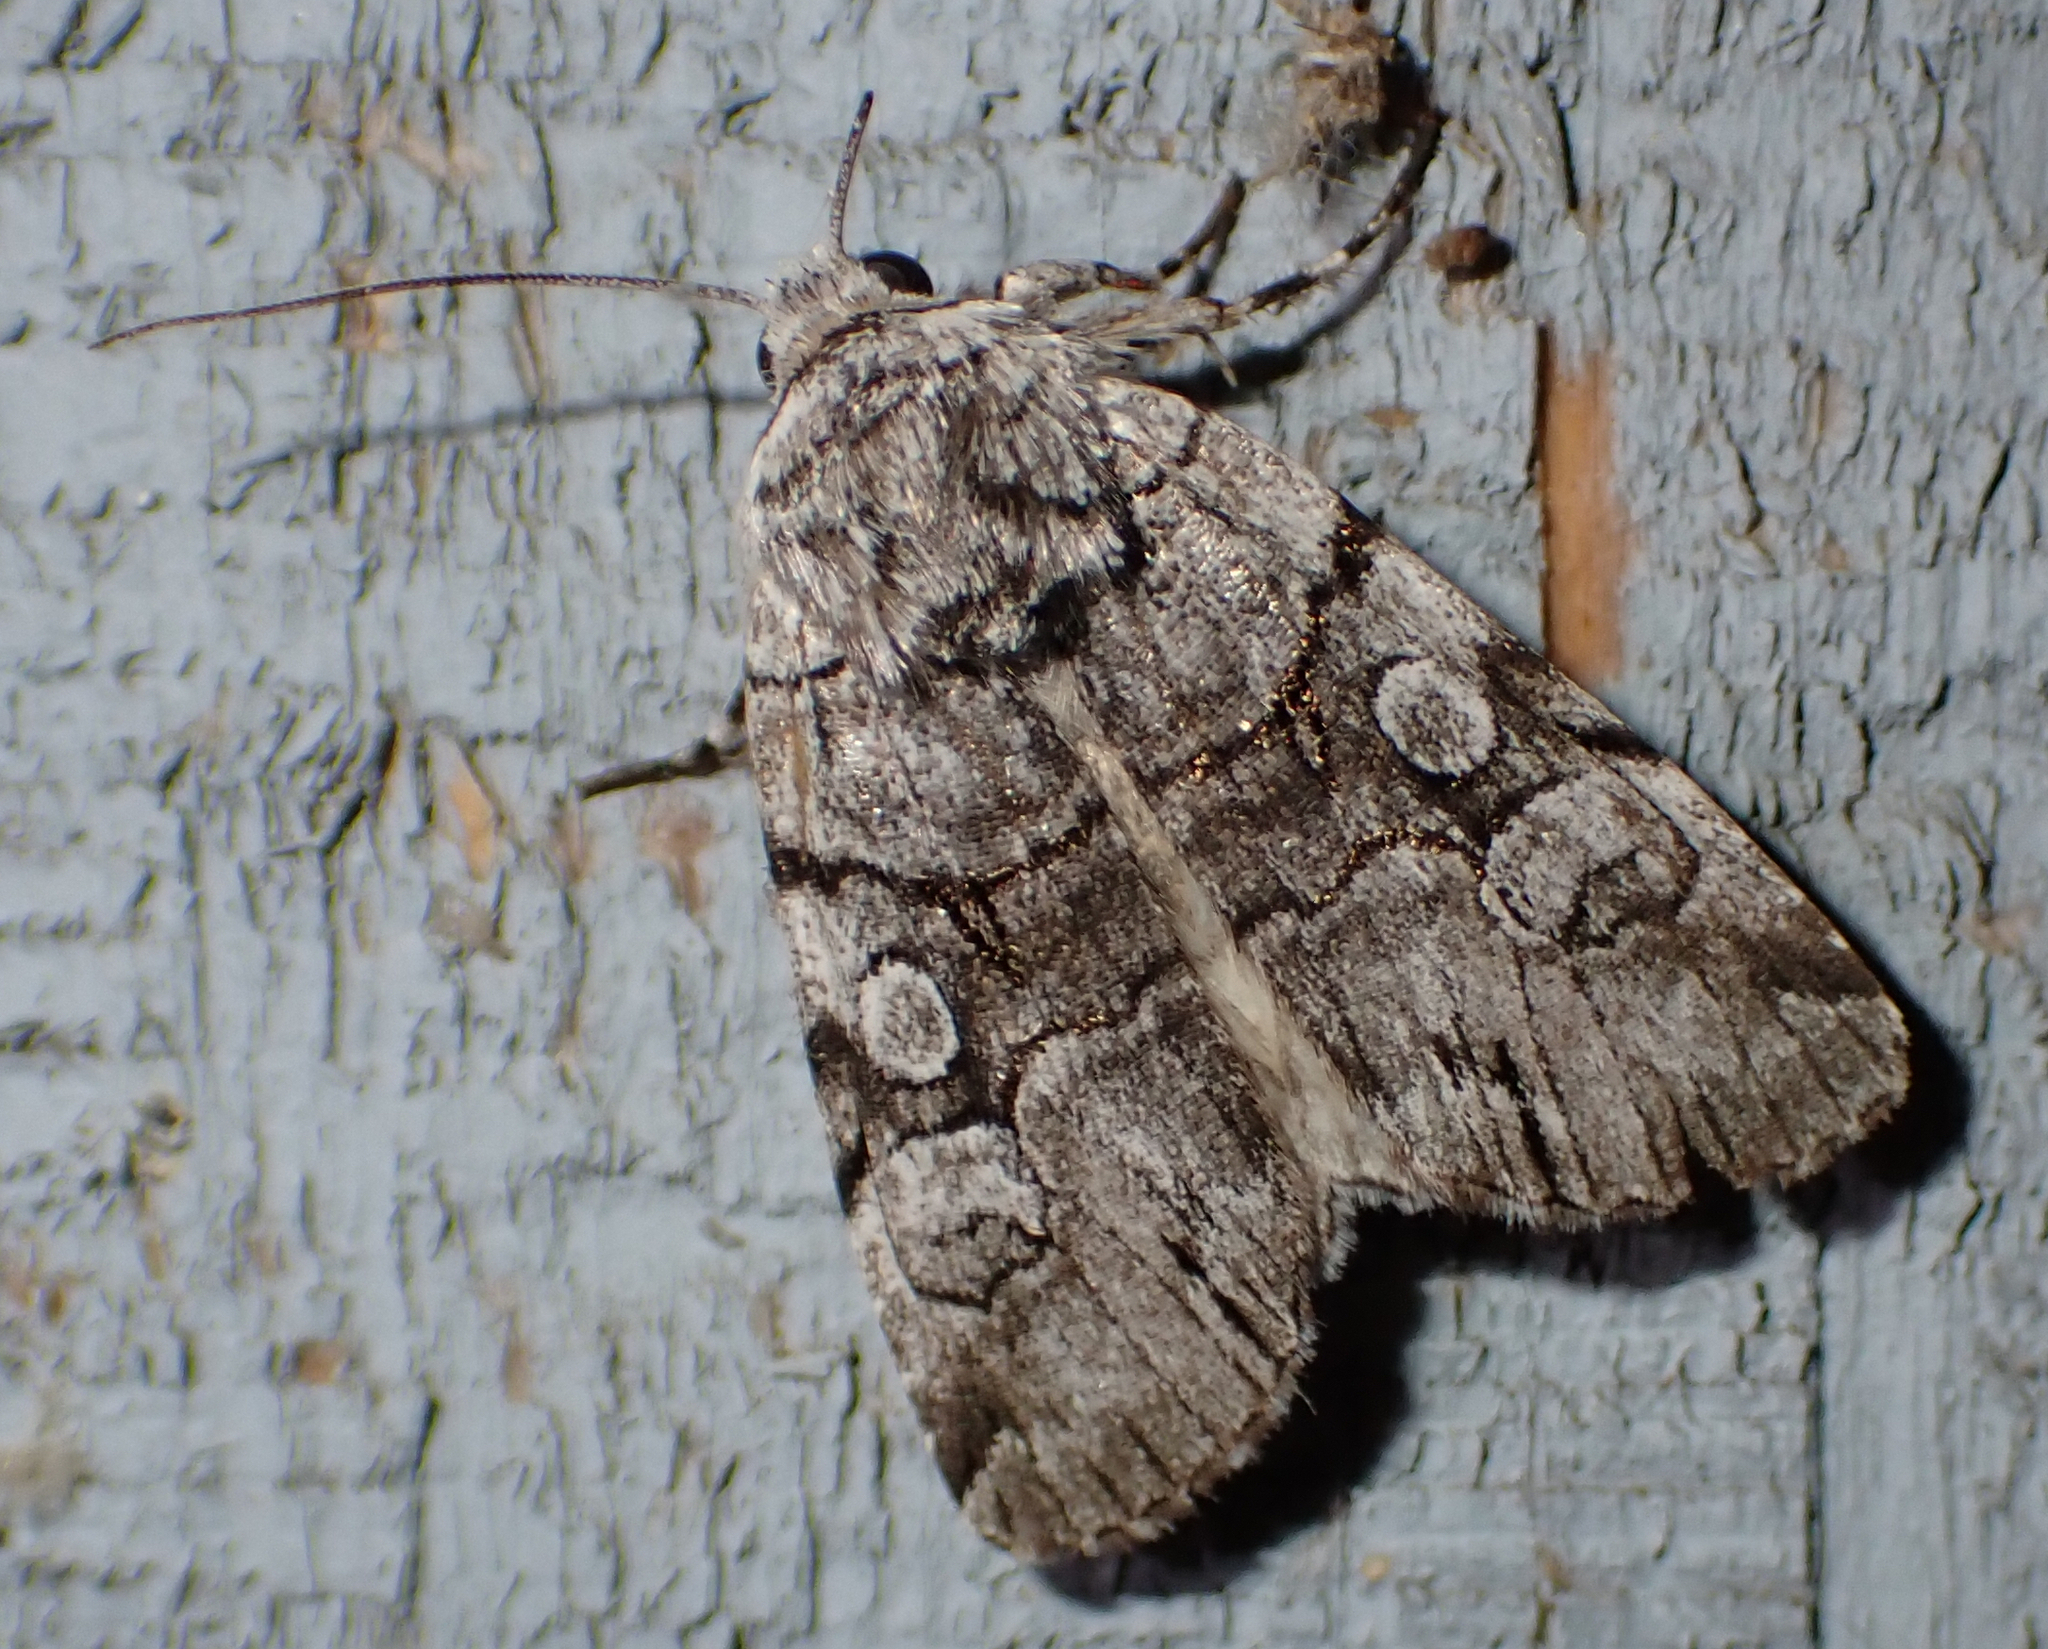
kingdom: Animalia
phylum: Arthropoda
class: Insecta
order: Lepidoptera
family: Noctuidae
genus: Sympistis
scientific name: Sympistis chionanthi
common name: Fringe-tree sallow
